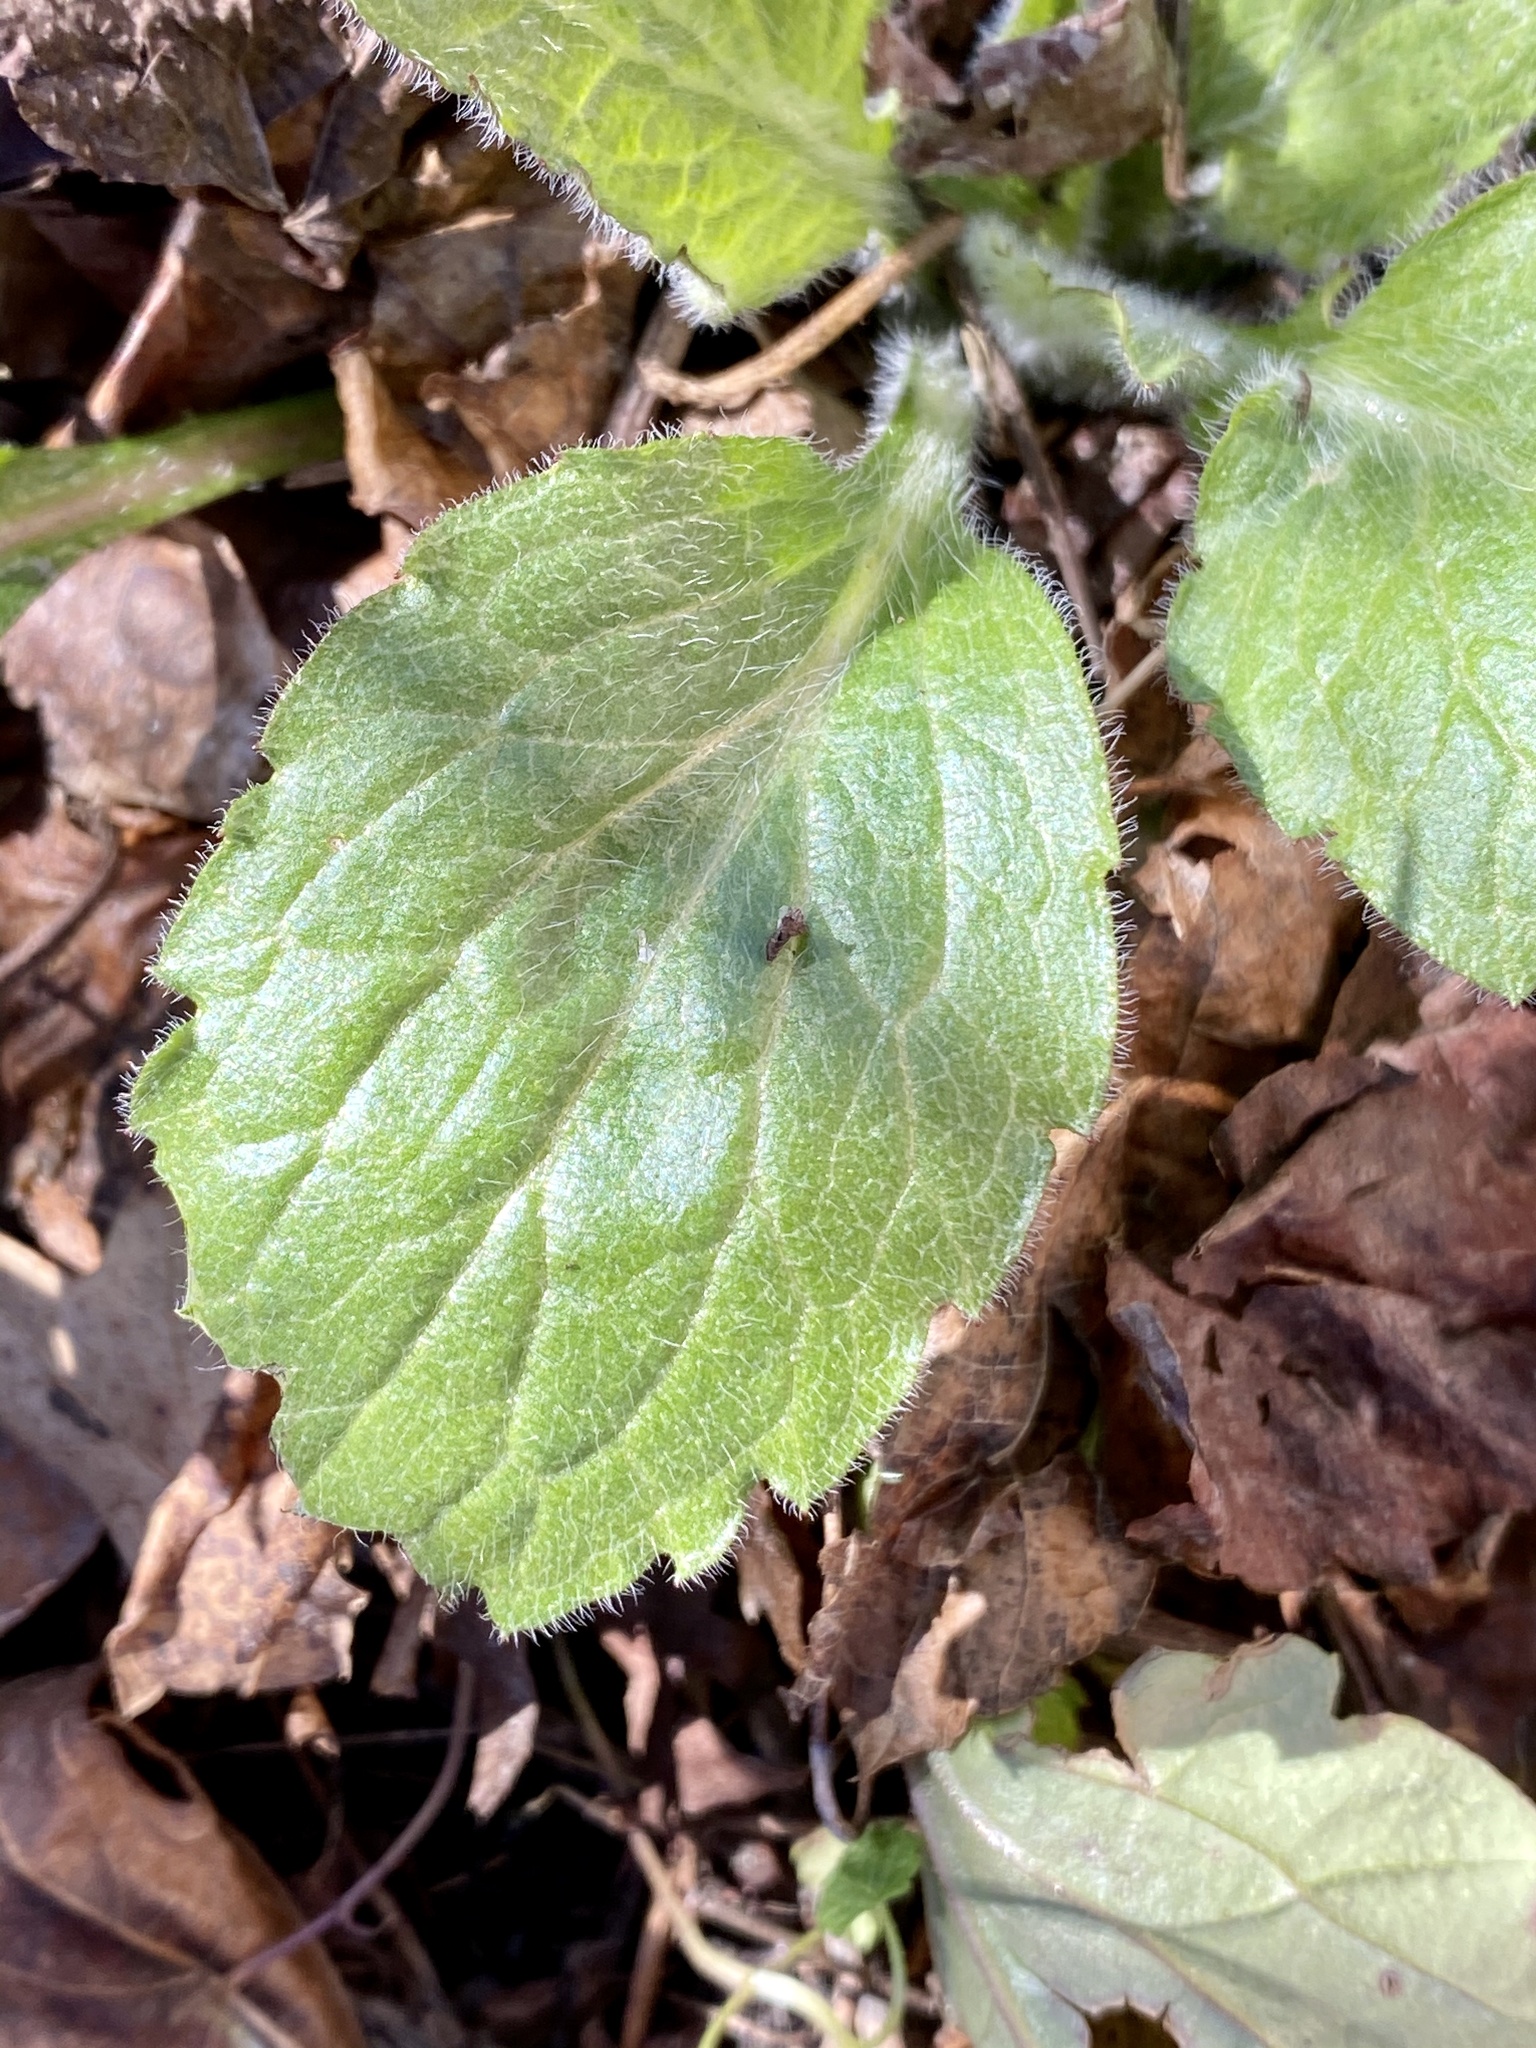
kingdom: Plantae
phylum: Tracheophyta
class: Magnoliopsida
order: Asterales
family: Asteraceae
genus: Erigeron
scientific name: Erigeron annuus
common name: Tall fleabane
